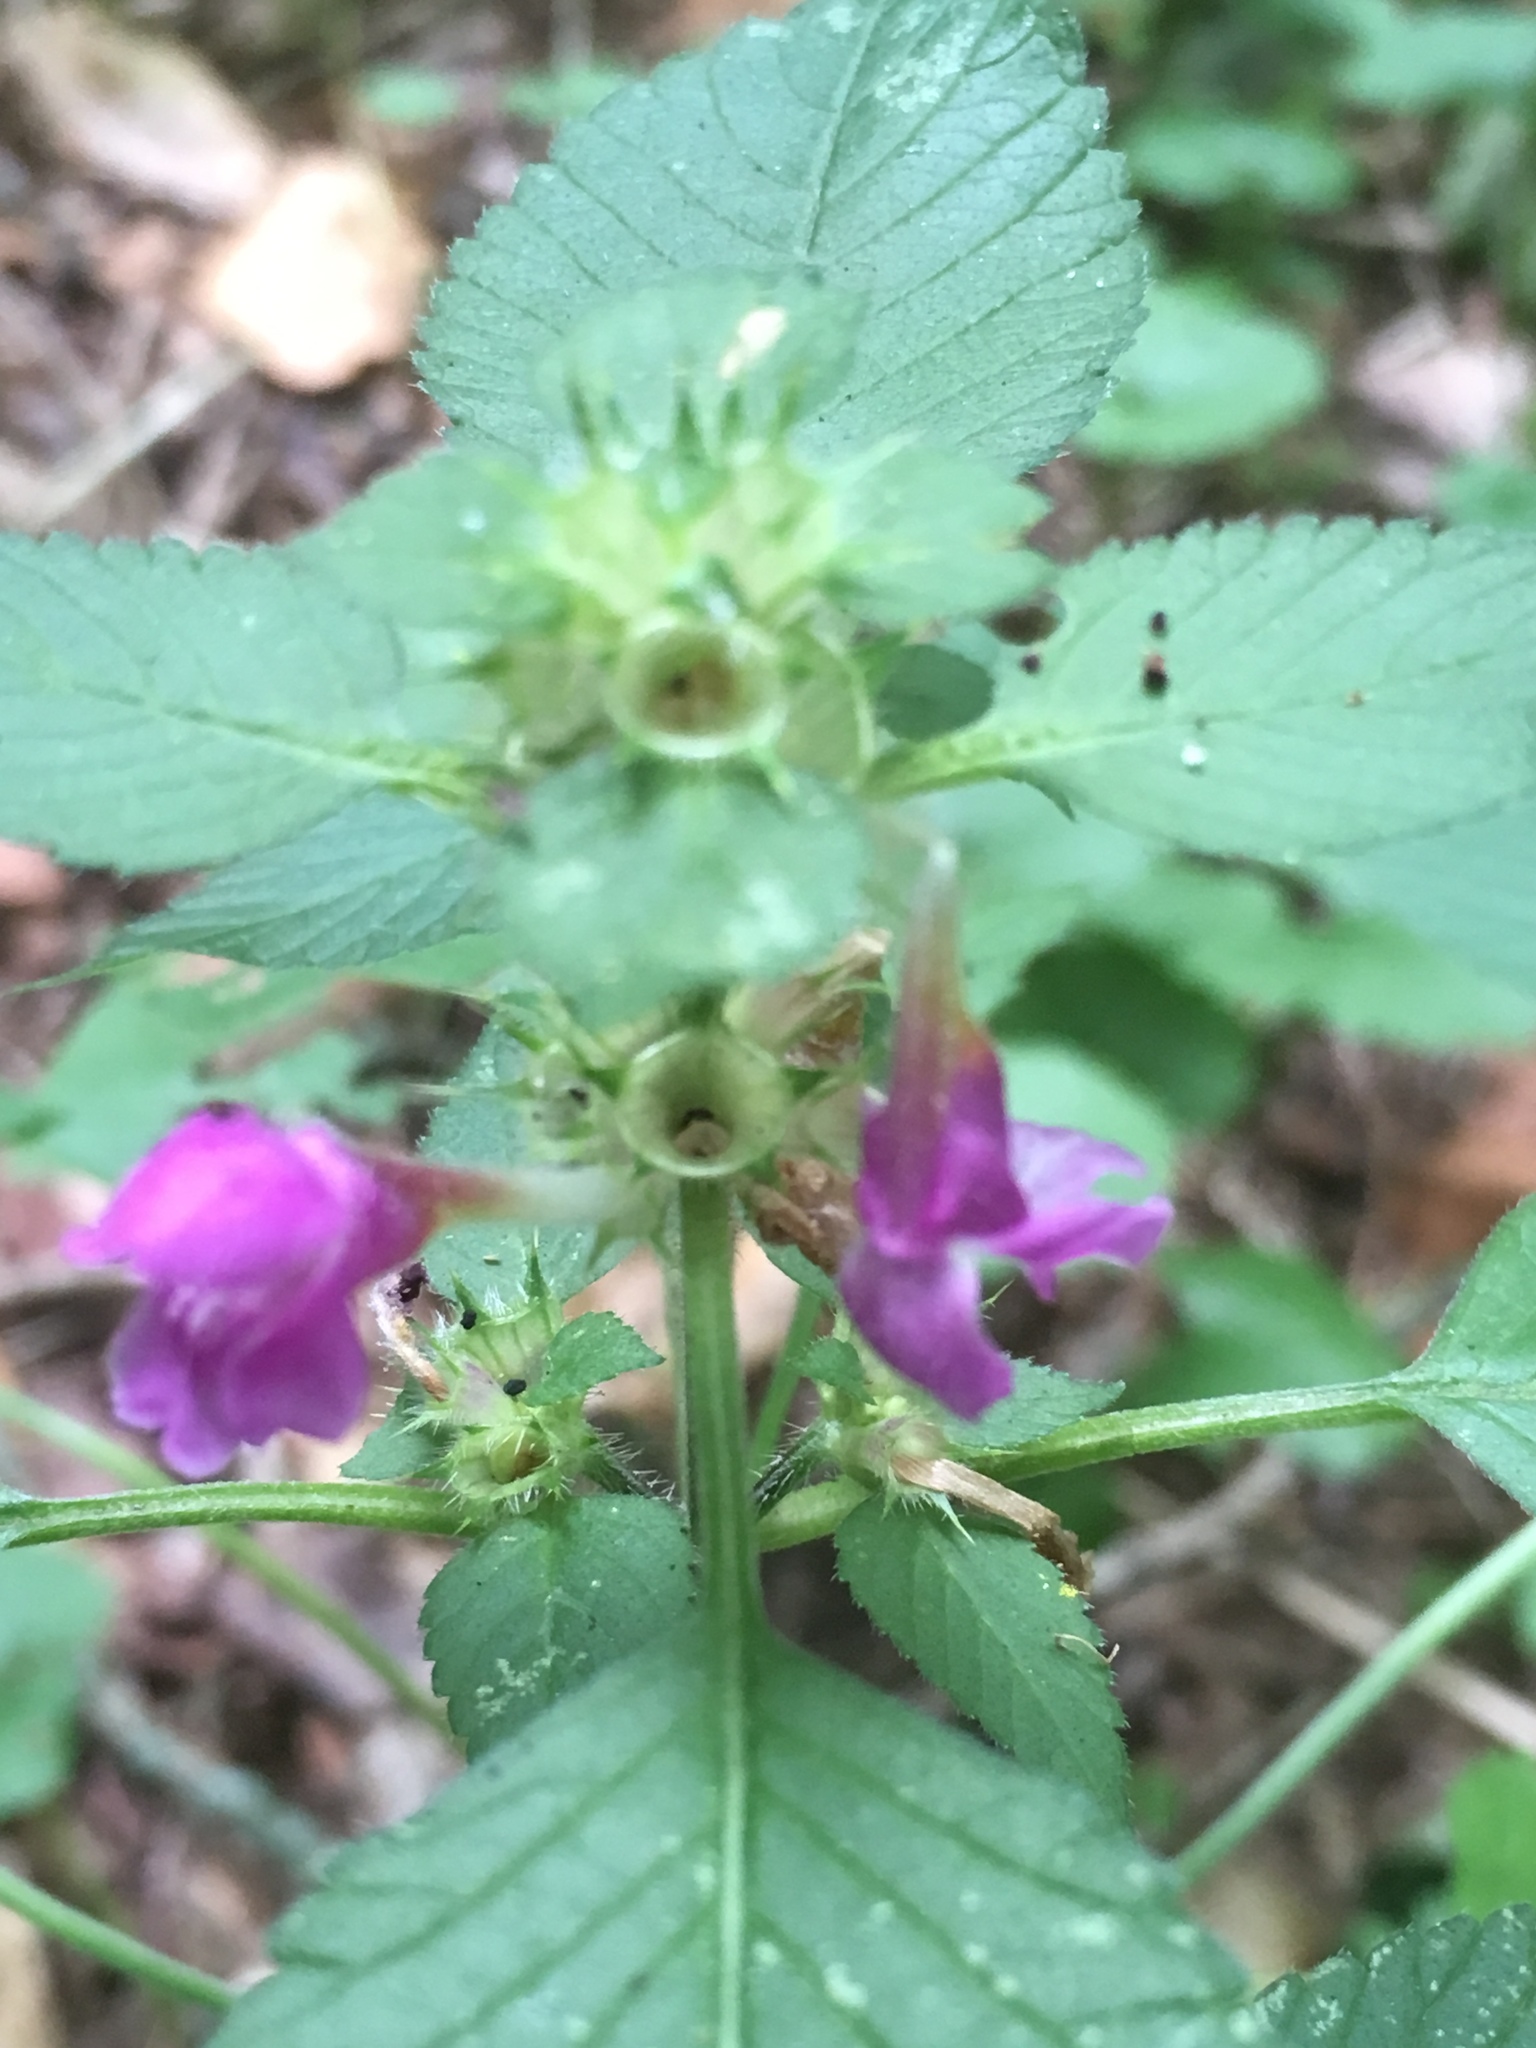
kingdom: Plantae
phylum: Tracheophyta
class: Magnoliopsida
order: Lamiales
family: Lamiaceae
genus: Galeopsis
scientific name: Galeopsis pubescens
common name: Downy hemp-nettle
